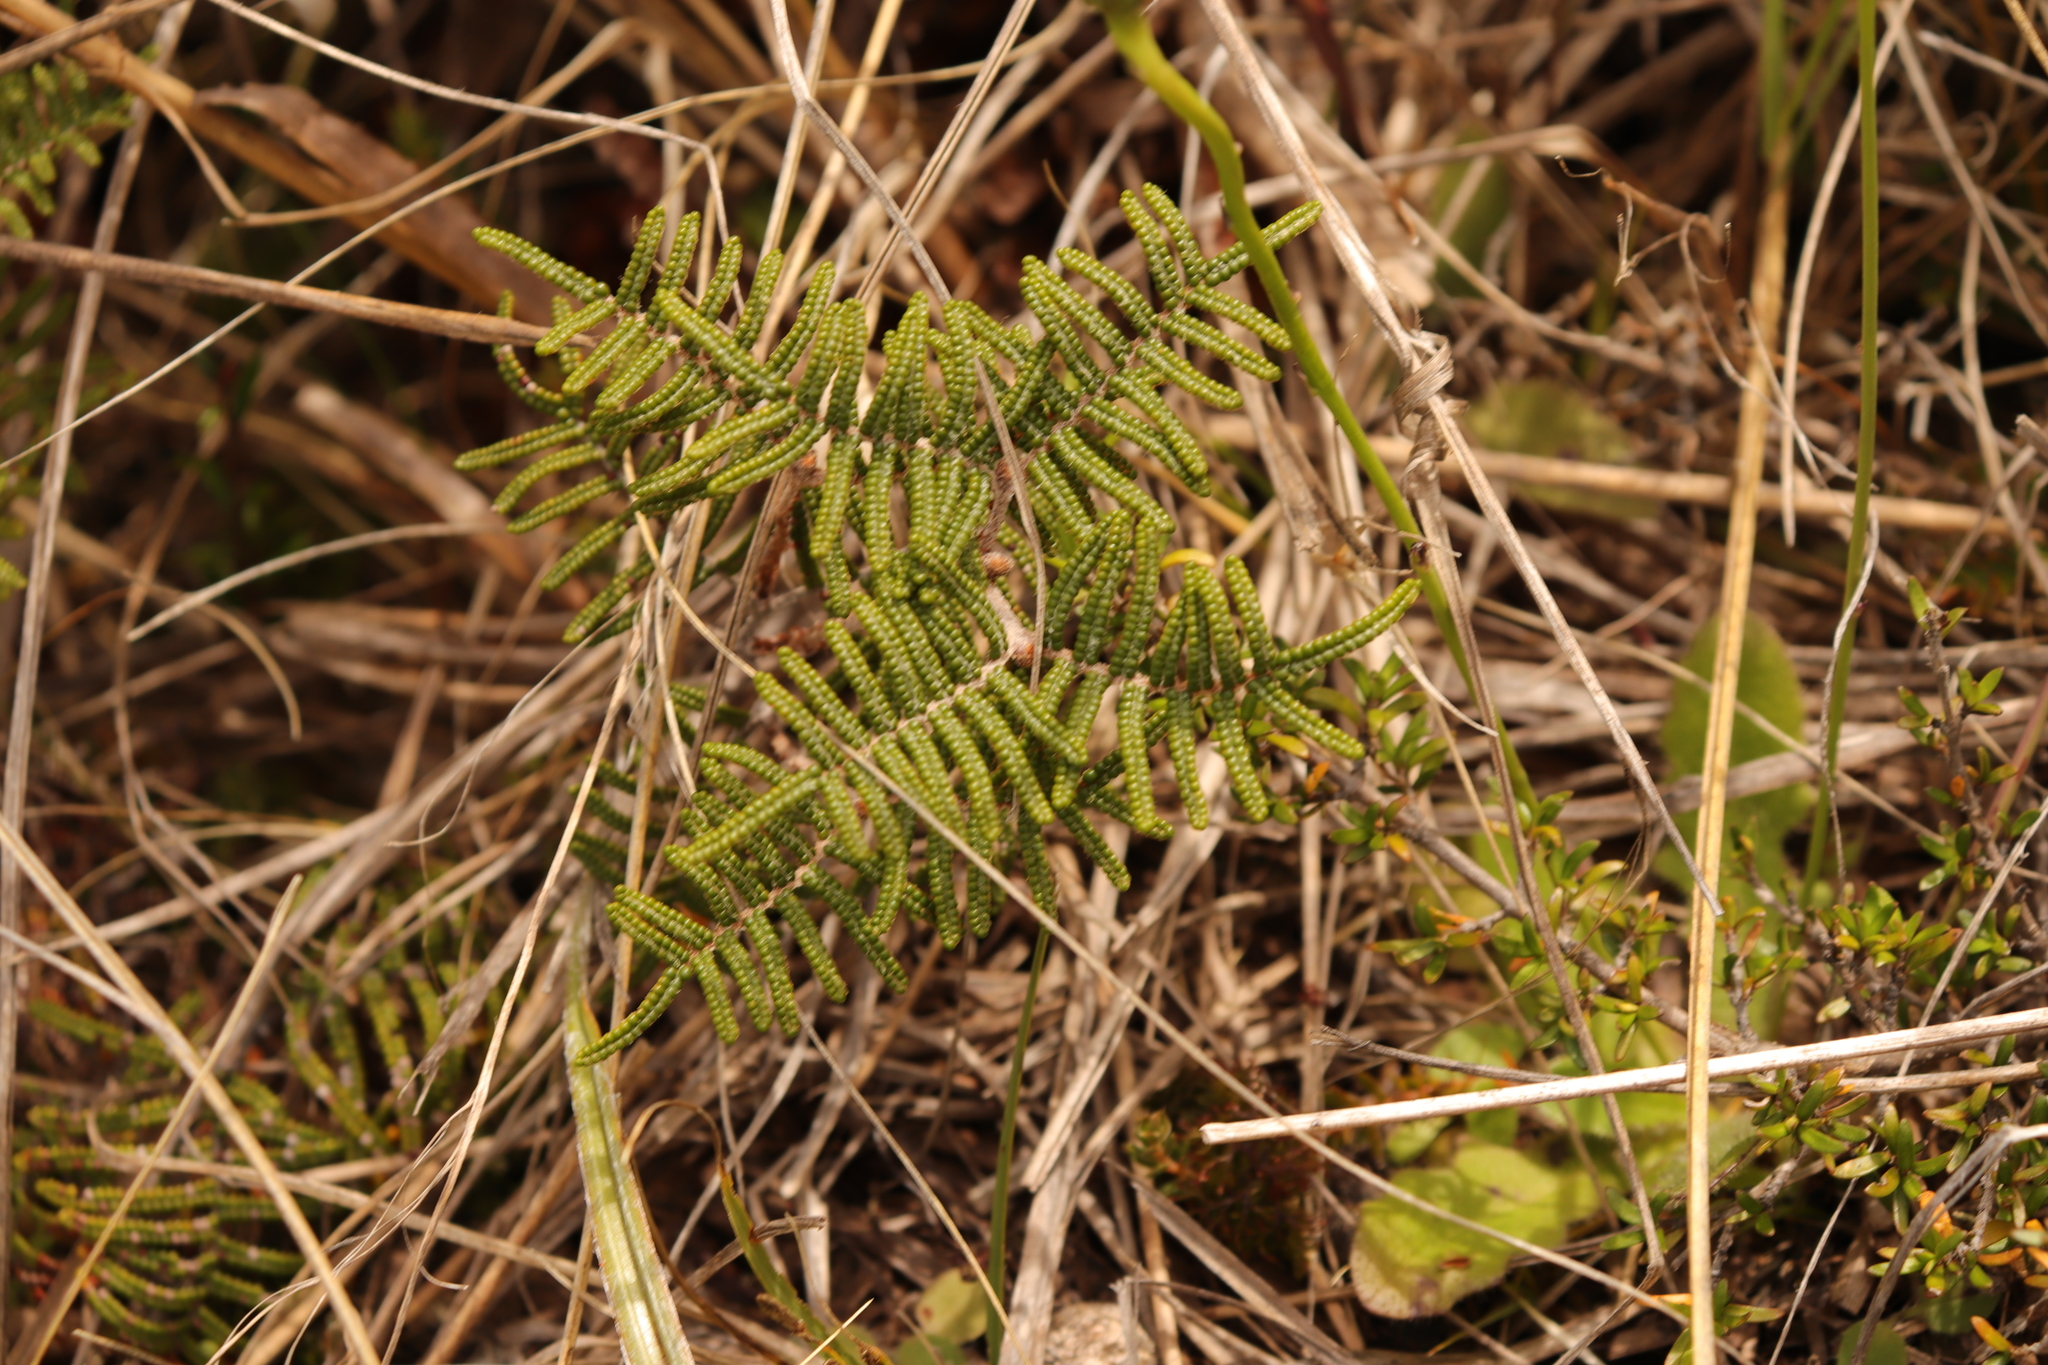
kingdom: Plantae
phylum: Tracheophyta
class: Polypodiopsida
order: Gleicheniales
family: Gleicheniaceae
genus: Gleichenia
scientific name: Gleichenia alpina
